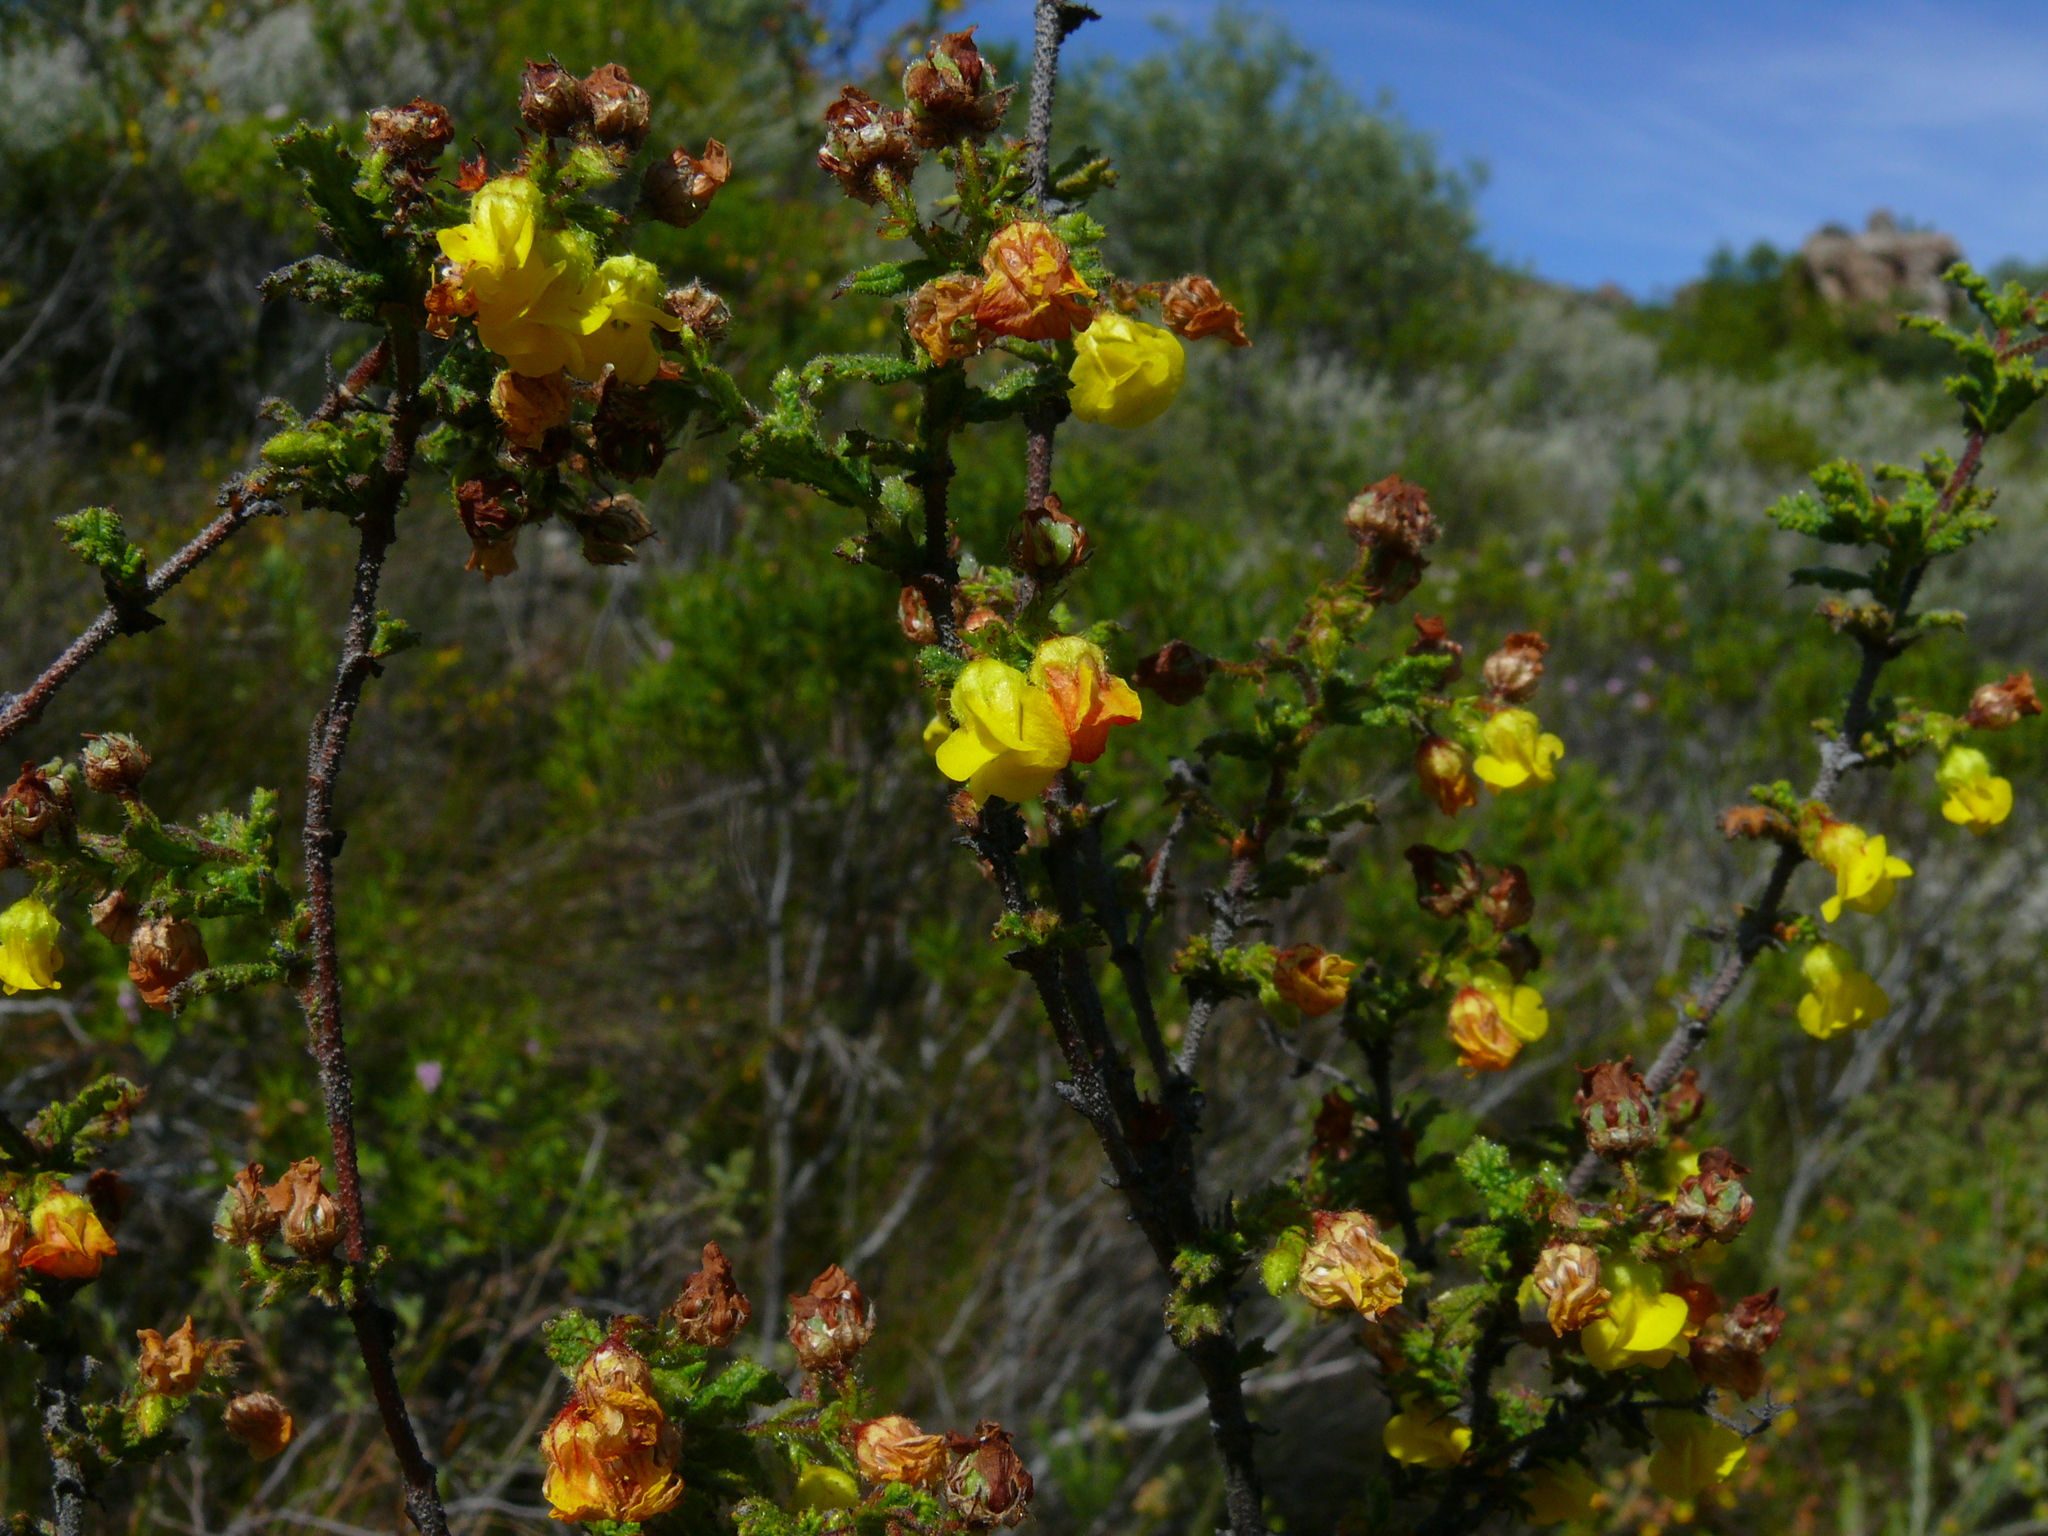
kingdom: Plantae
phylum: Tracheophyta
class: Magnoliopsida
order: Malvales
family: Malvaceae
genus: Hermannia
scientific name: Hermannia aspera
